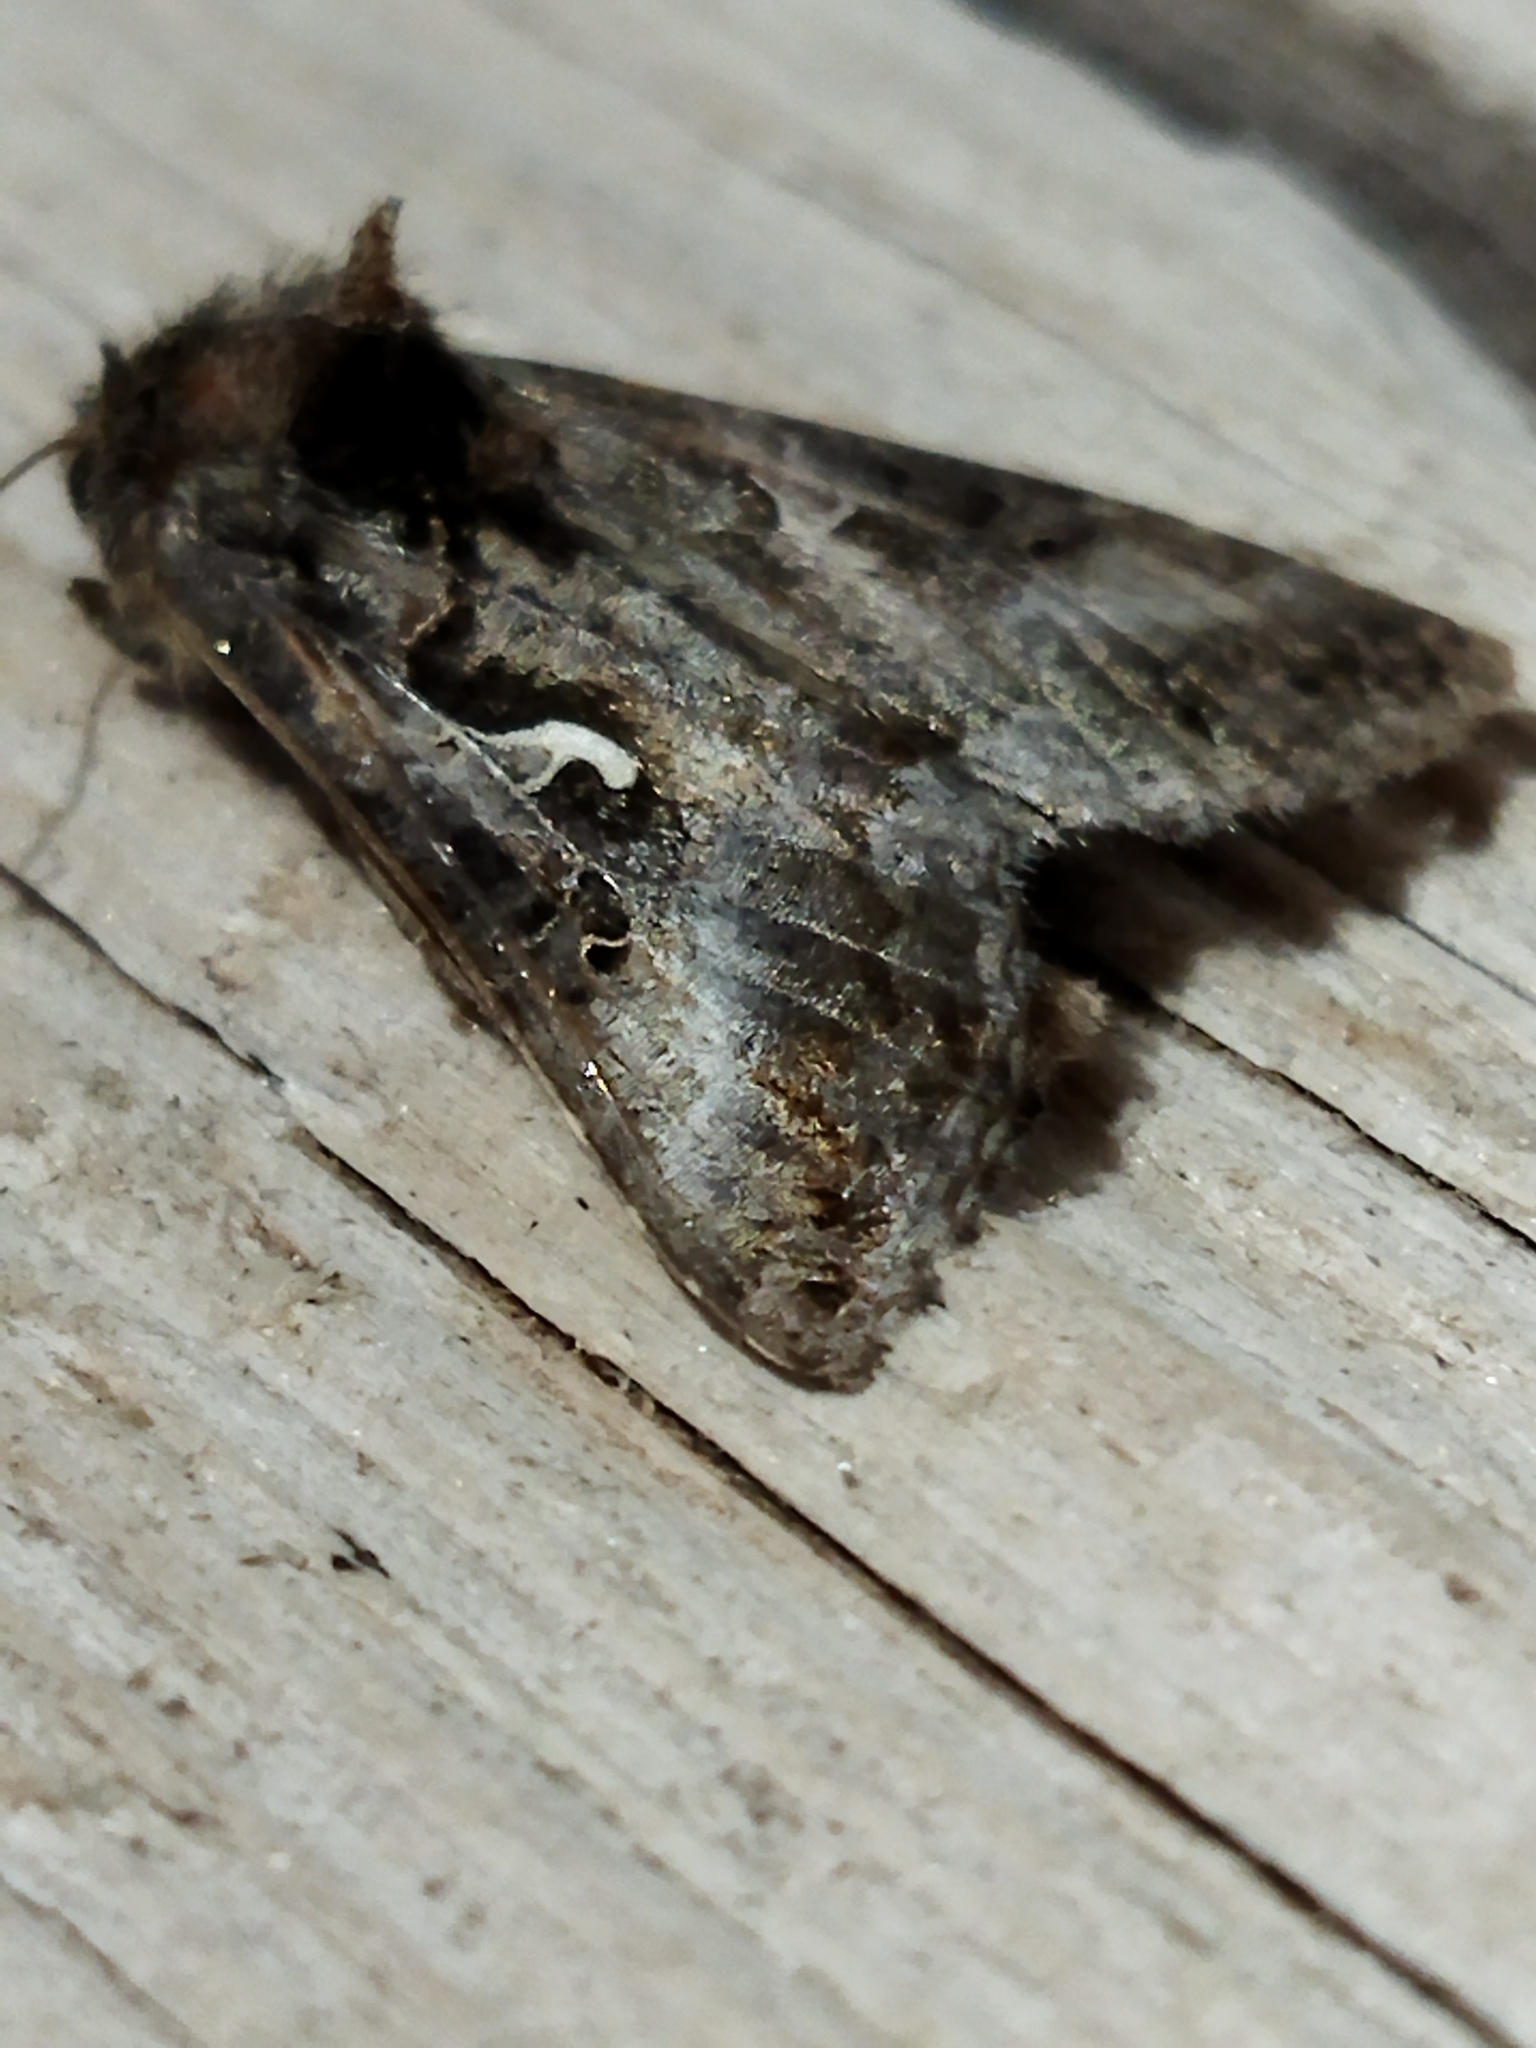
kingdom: Animalia
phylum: Arthropoda
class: Insecta
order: Lepidoptera
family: Noctuidae
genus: Autographa
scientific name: Autographa gamma
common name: Silver y
